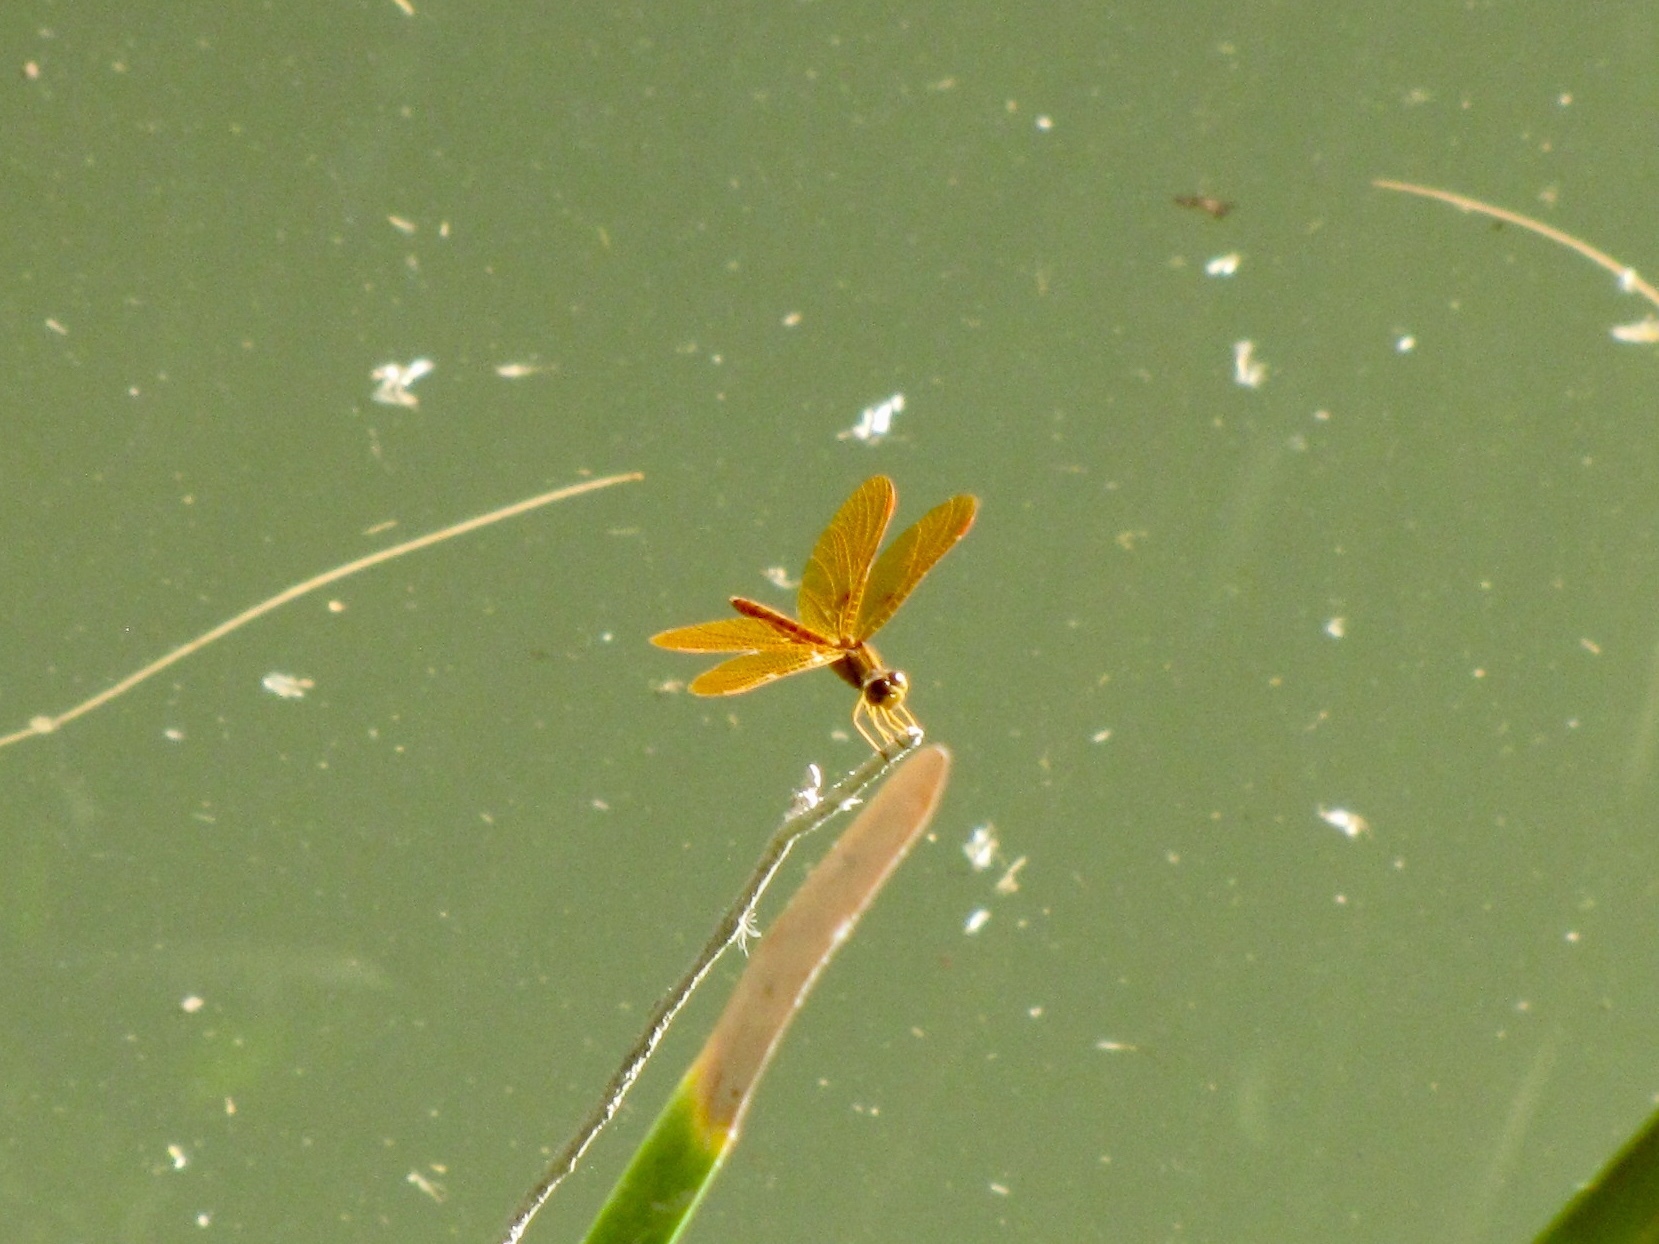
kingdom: Animalia
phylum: Arthropoda
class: Insecta
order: Odonata
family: Libellulidae
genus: Perithemis
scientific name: Perithemis intensa
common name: Mexican amberwing
